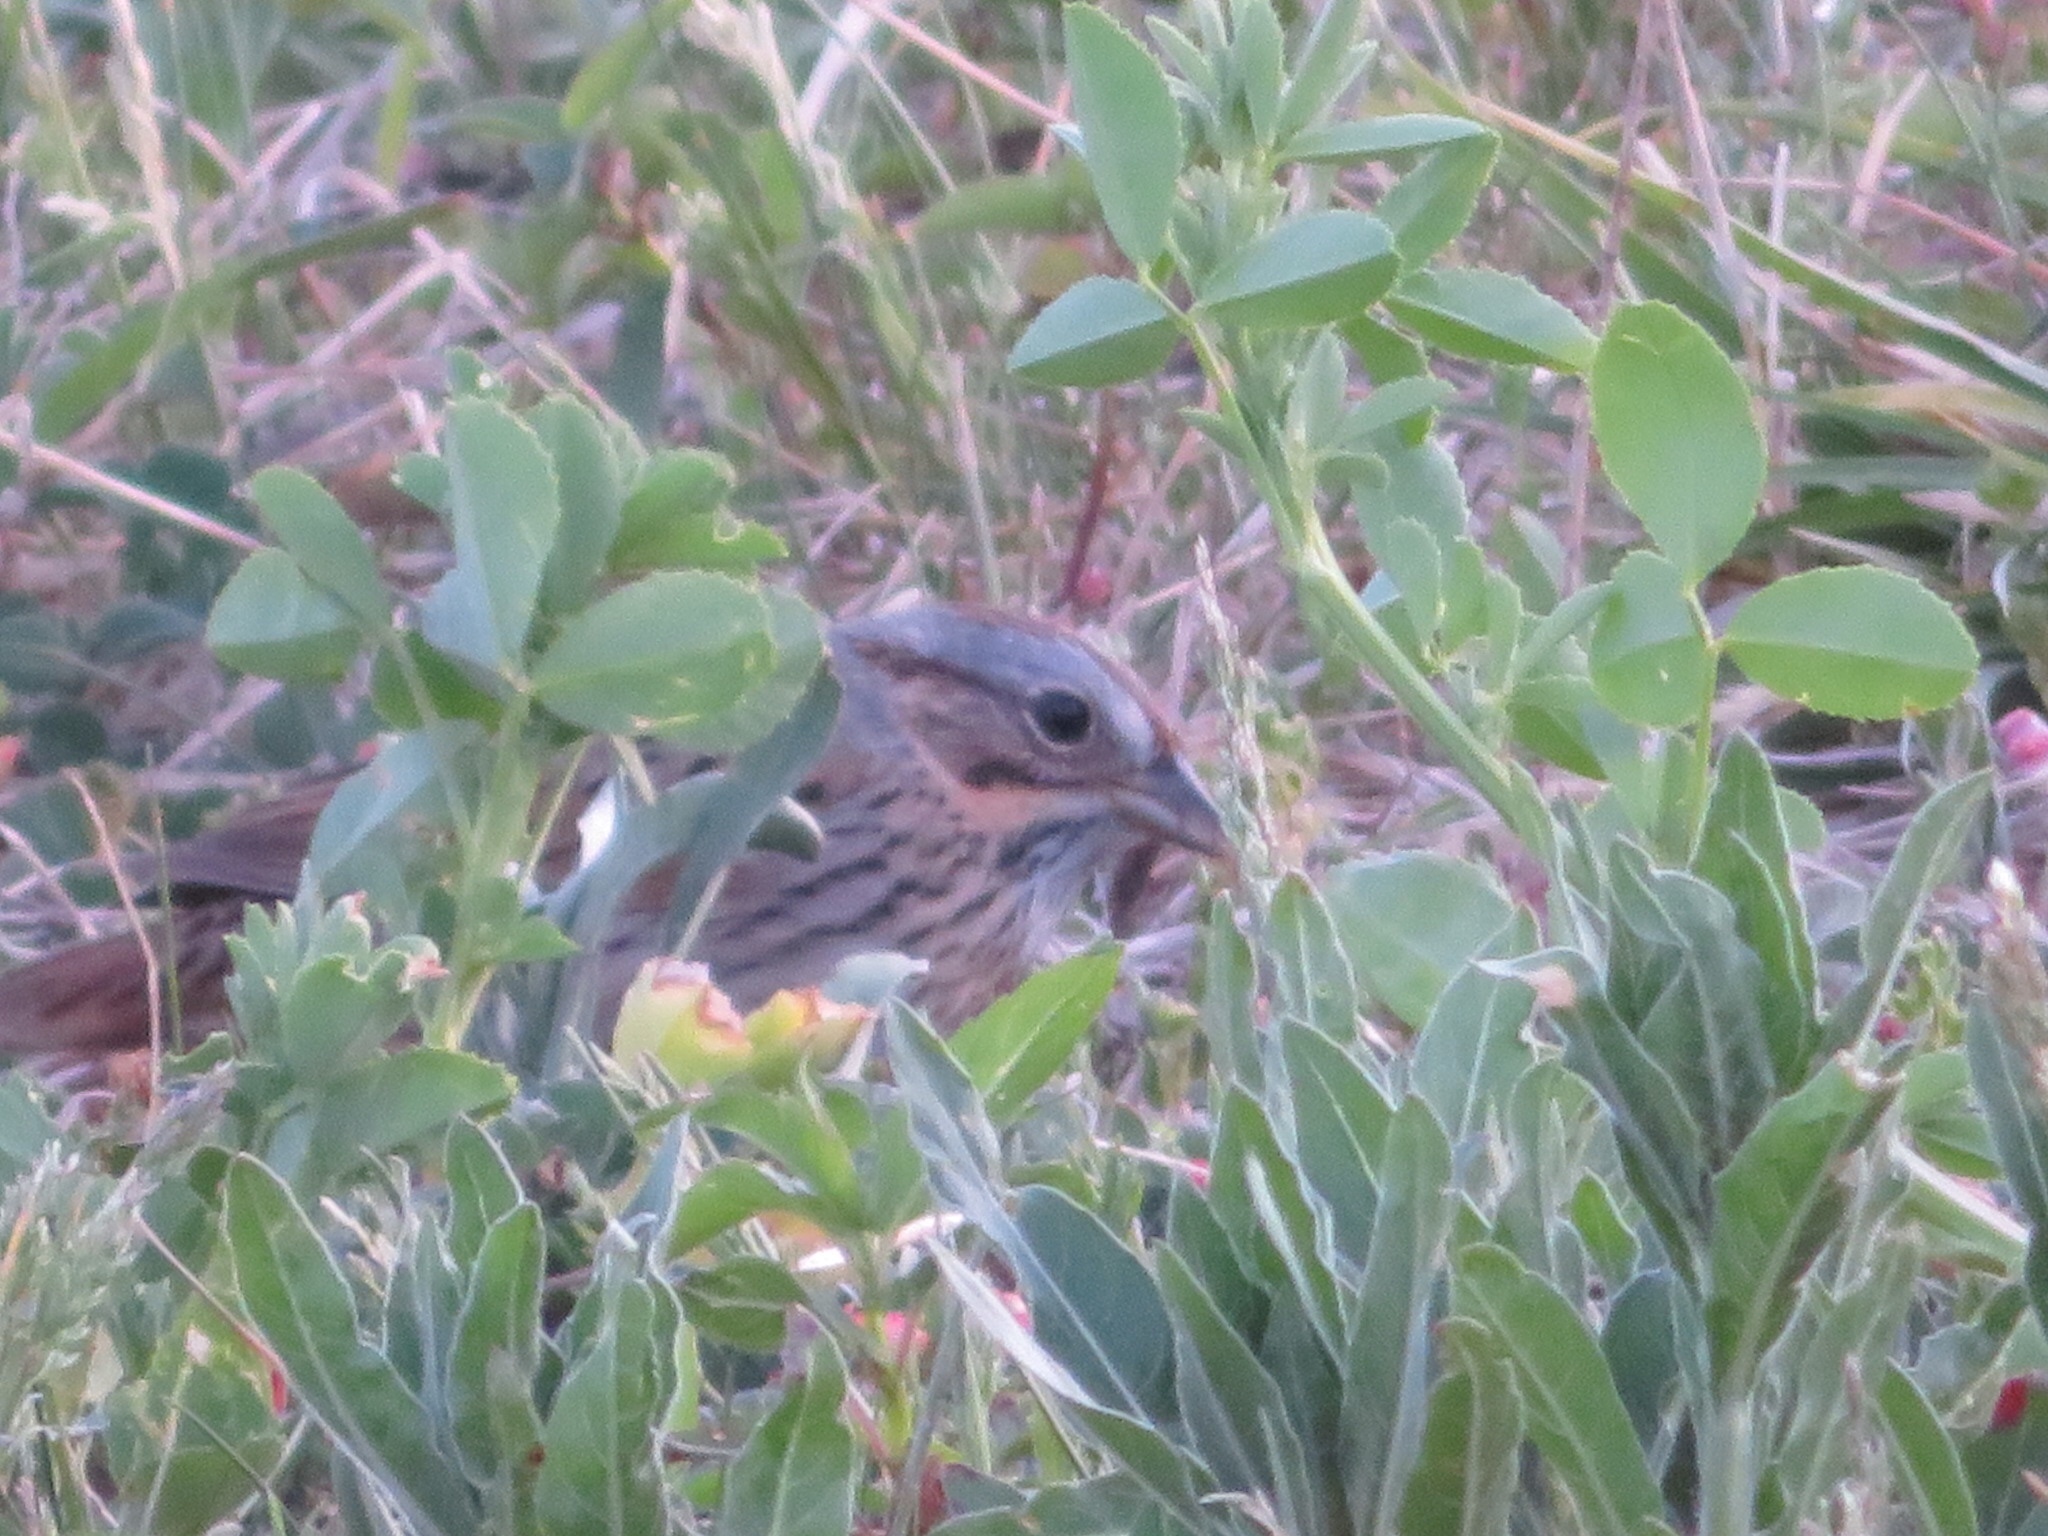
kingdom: Animalia
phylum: Chordata
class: Aves
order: Passeriformes
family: Passerellidae
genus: Melospiza
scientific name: Melospiza lincolnii
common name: Lincoln's sparrow
